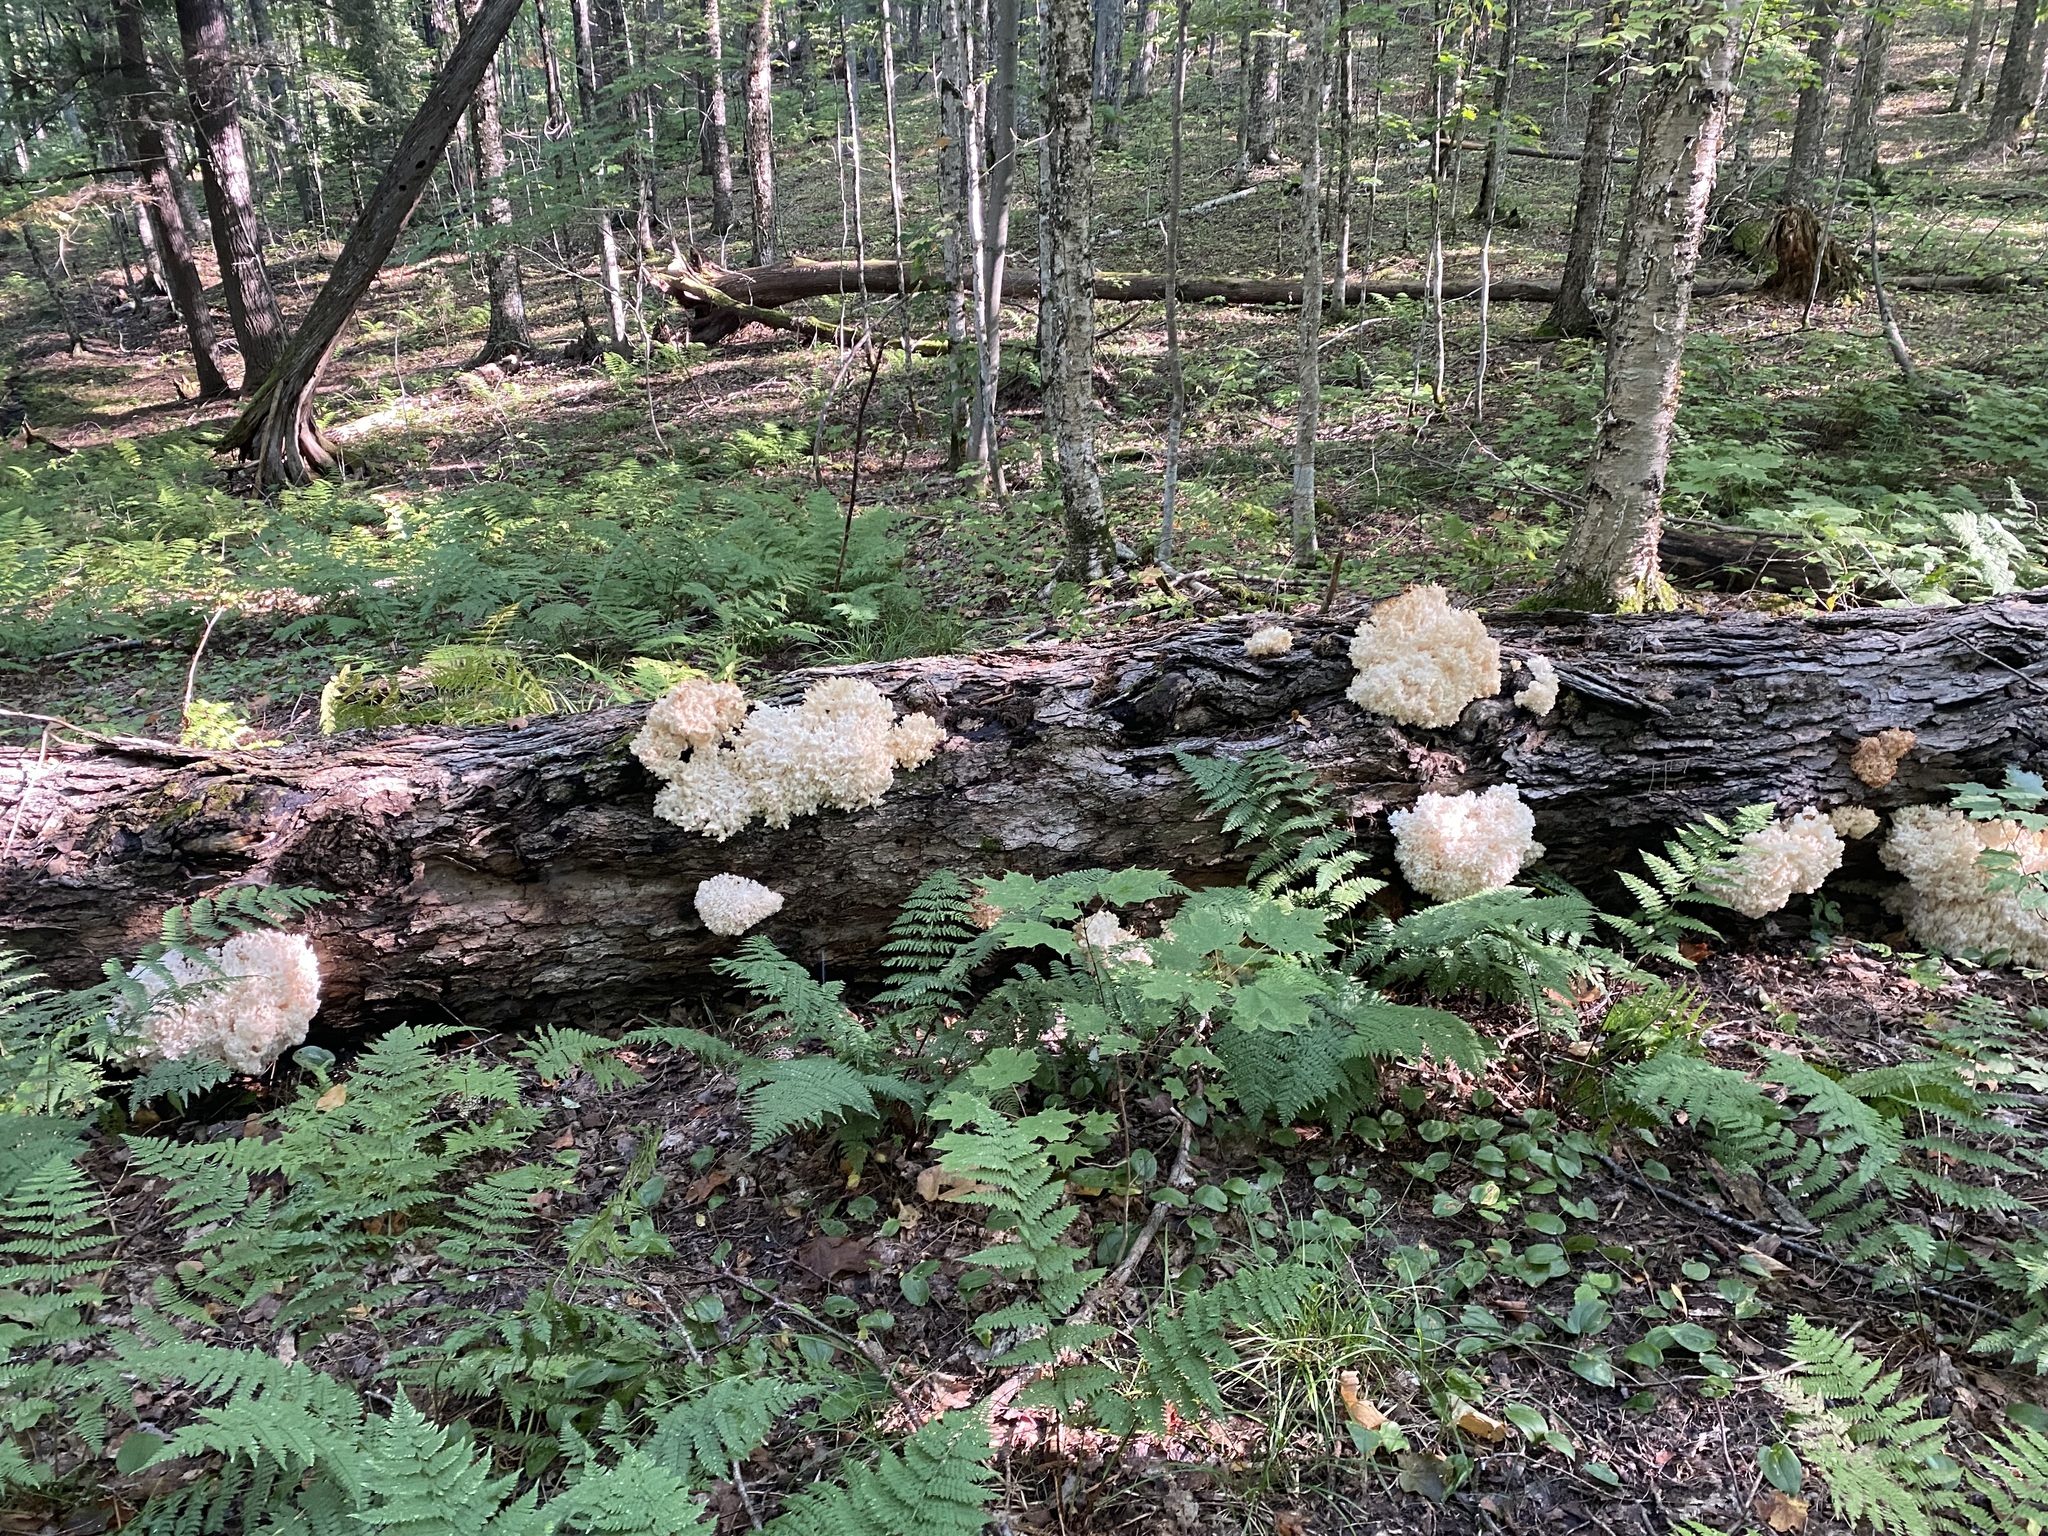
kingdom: Fungi
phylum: Basidiomycota
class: Agaricomycetes
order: Russulales
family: Hericiaceae
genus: Hericium
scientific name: Hericium coralloides
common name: Coral tooth
